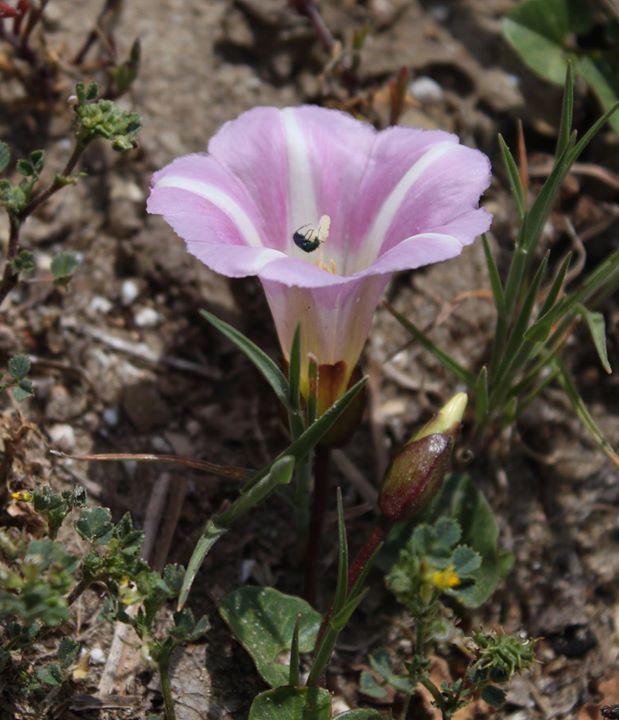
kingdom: Plantae
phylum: Tracheophyta
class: Magnoliopsida
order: Solanales
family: Convolvulaceae
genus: Calystegia
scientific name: Calystegia soldanella
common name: Sea bindweed
